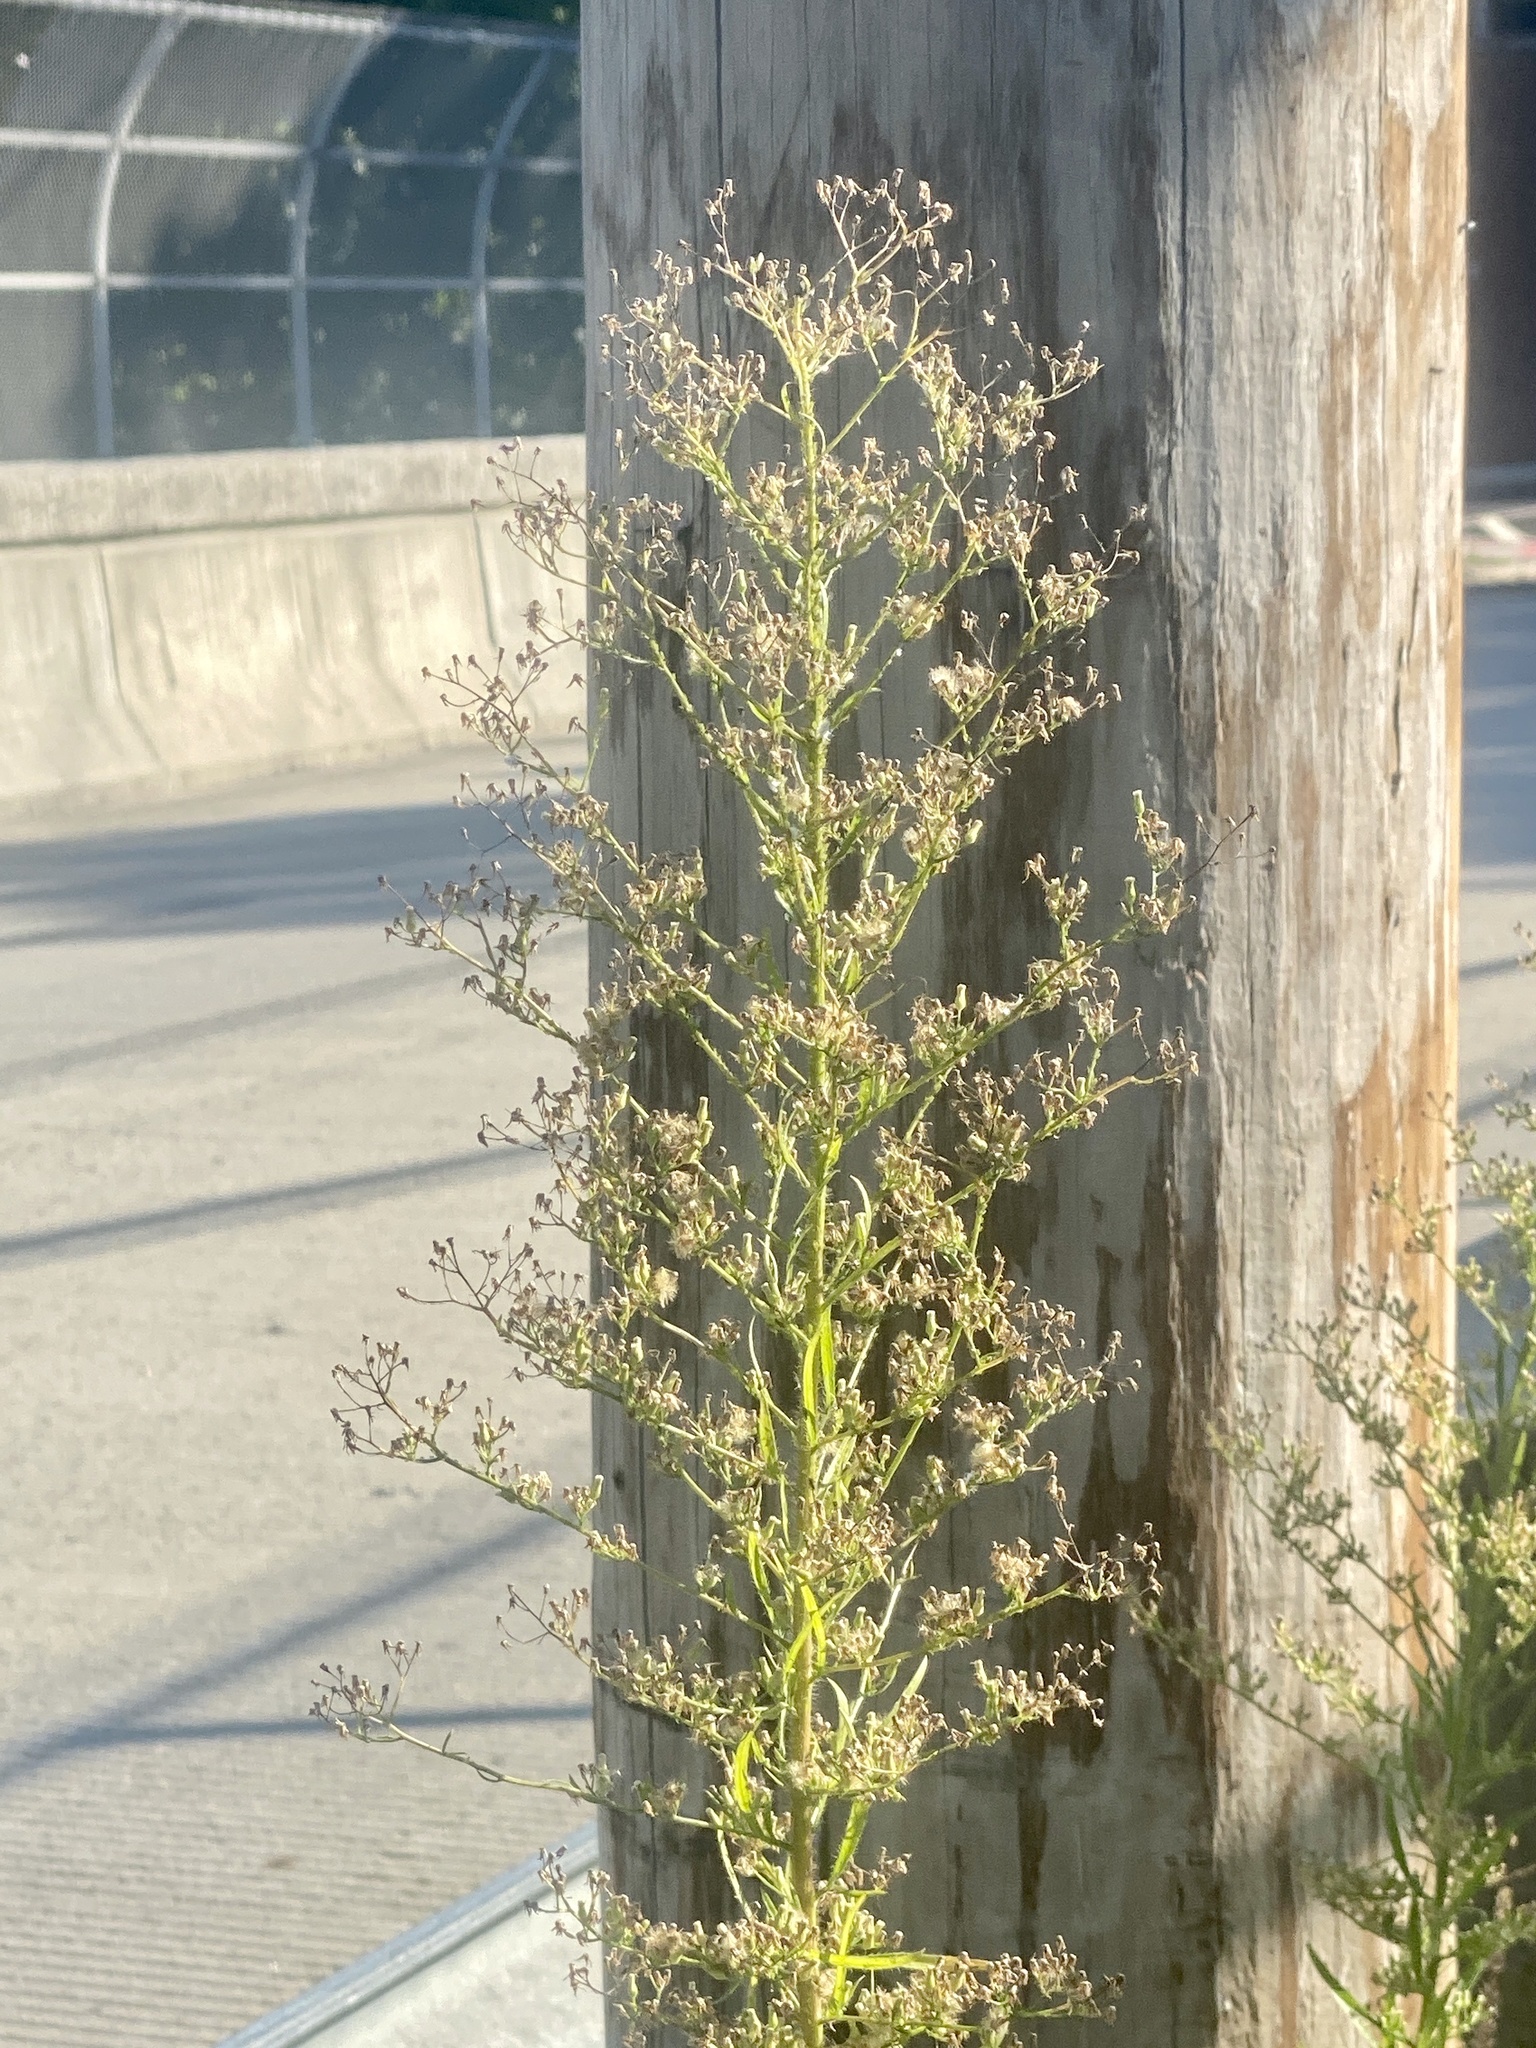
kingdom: Plantae
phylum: Tracheophyta
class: Magnoliopsida
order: Asterales
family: Asteraceae
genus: Erigeron
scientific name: Erigeron canadensis
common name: Canadian fleabane
